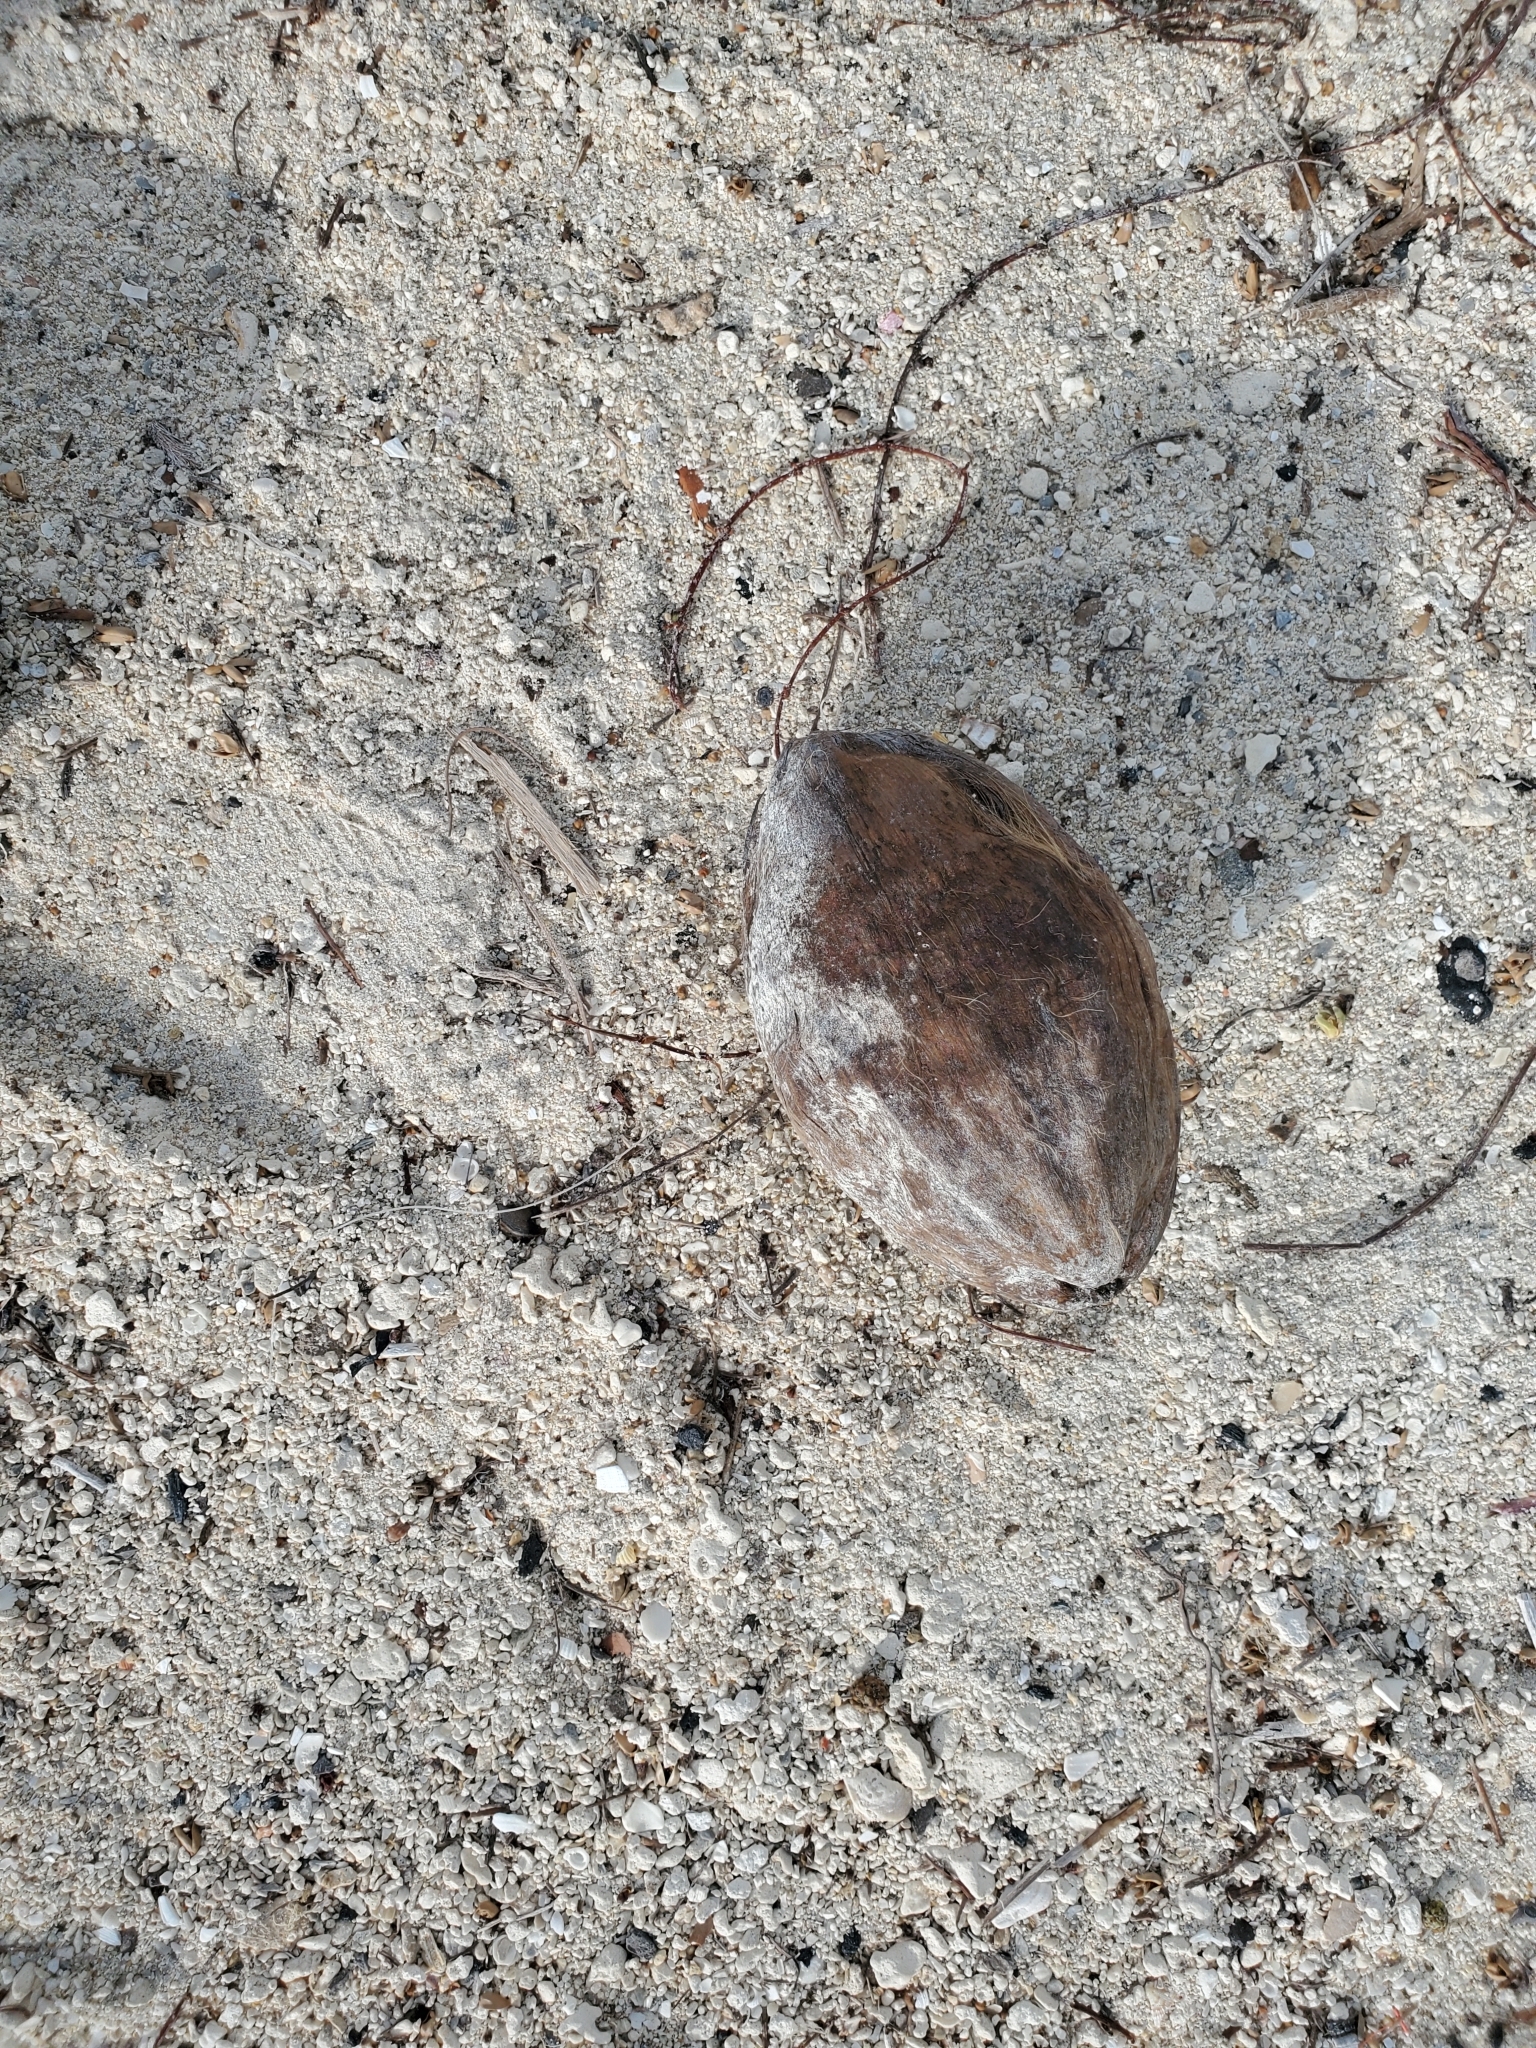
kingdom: Plantae
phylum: Tracheophyta
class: Magnoliopsida
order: Myrtales
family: Combretaceae
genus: Terminalia
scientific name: Terminalia catappa
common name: Tropical almond
